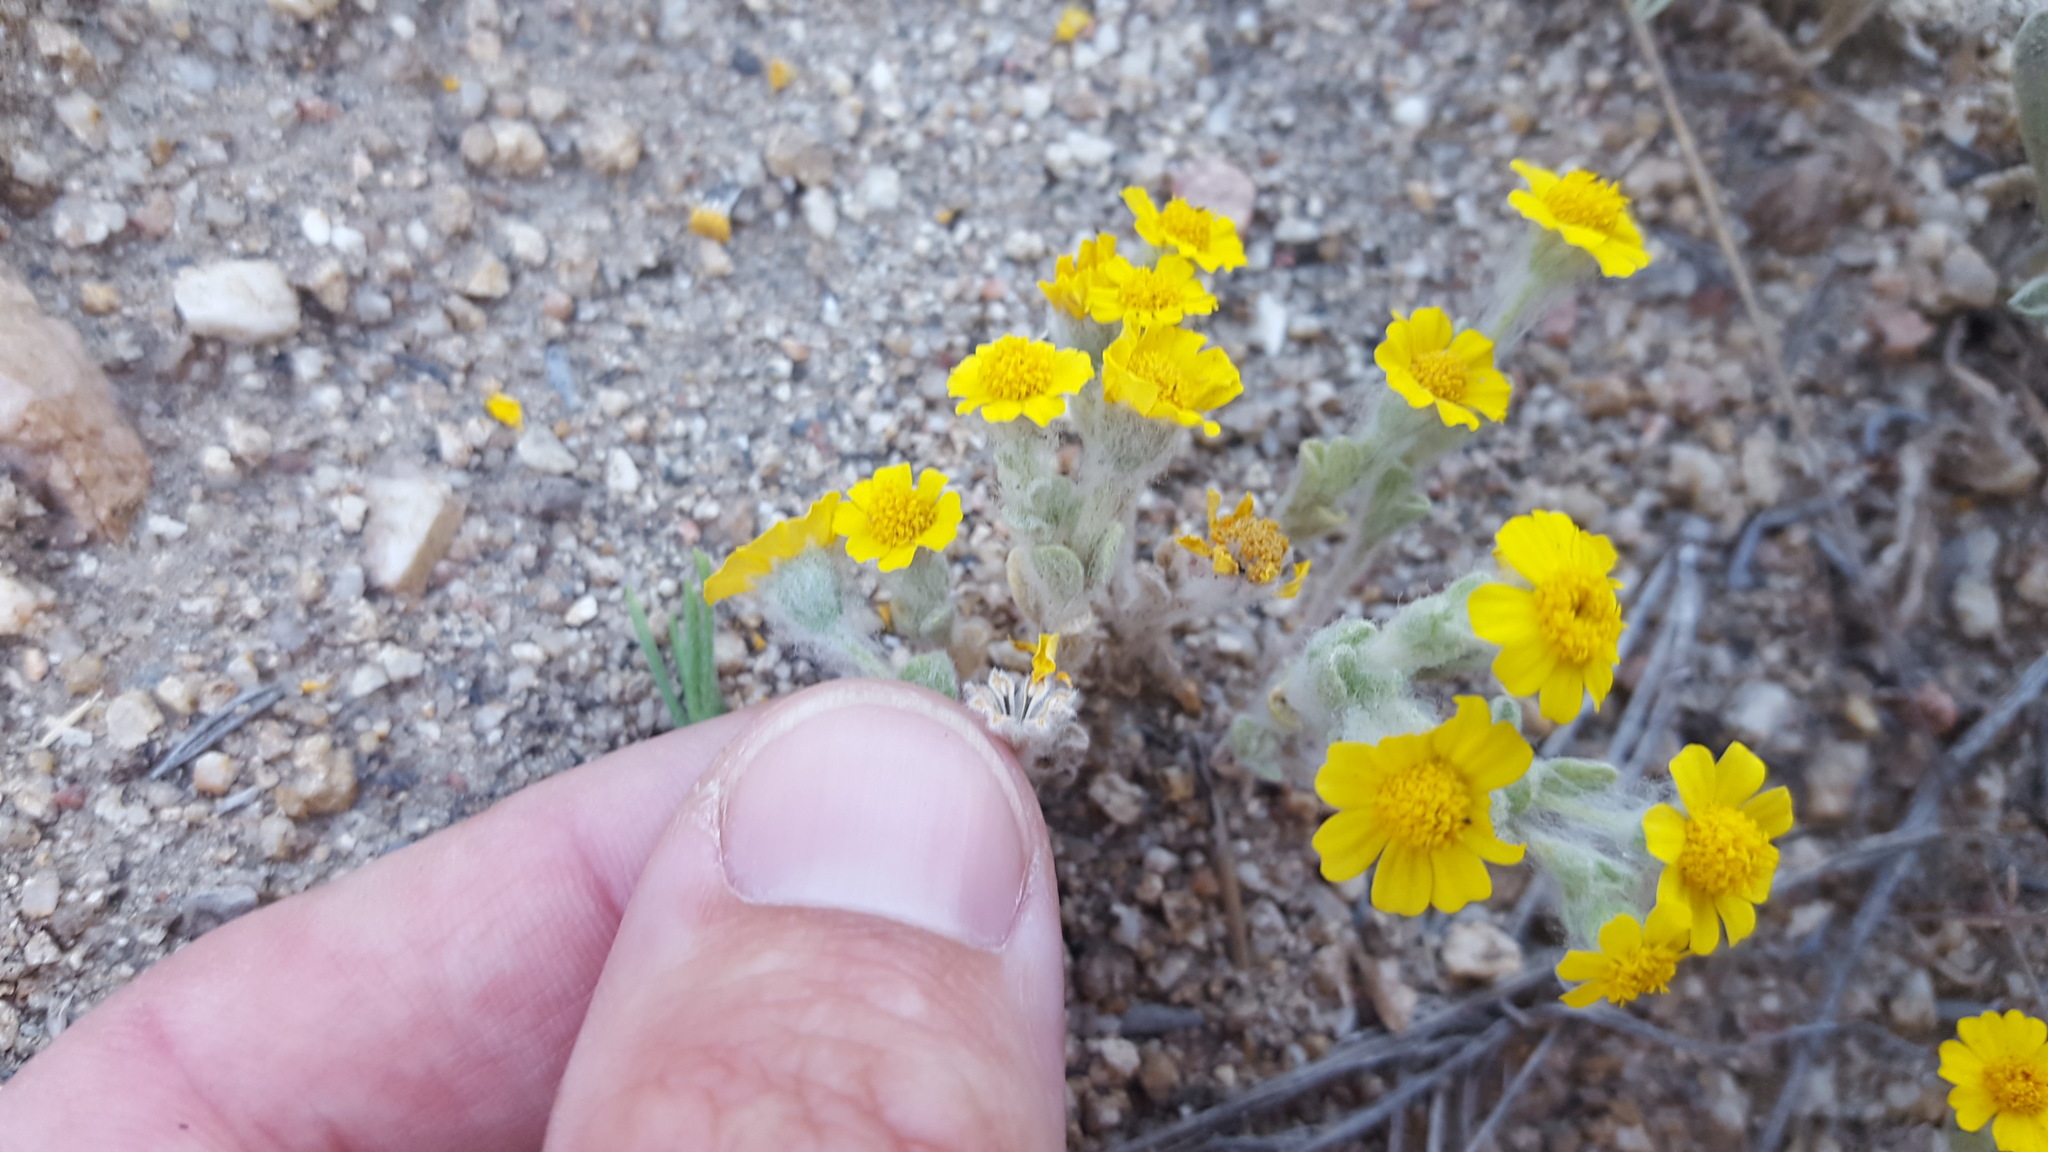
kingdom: Plantae
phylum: Tracheophyta
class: Magnoliopsida
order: Asterales
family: Asteraceae
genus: Eriophyllum
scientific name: Eriophyllum wallacei
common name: Wallace's woolly daisy
